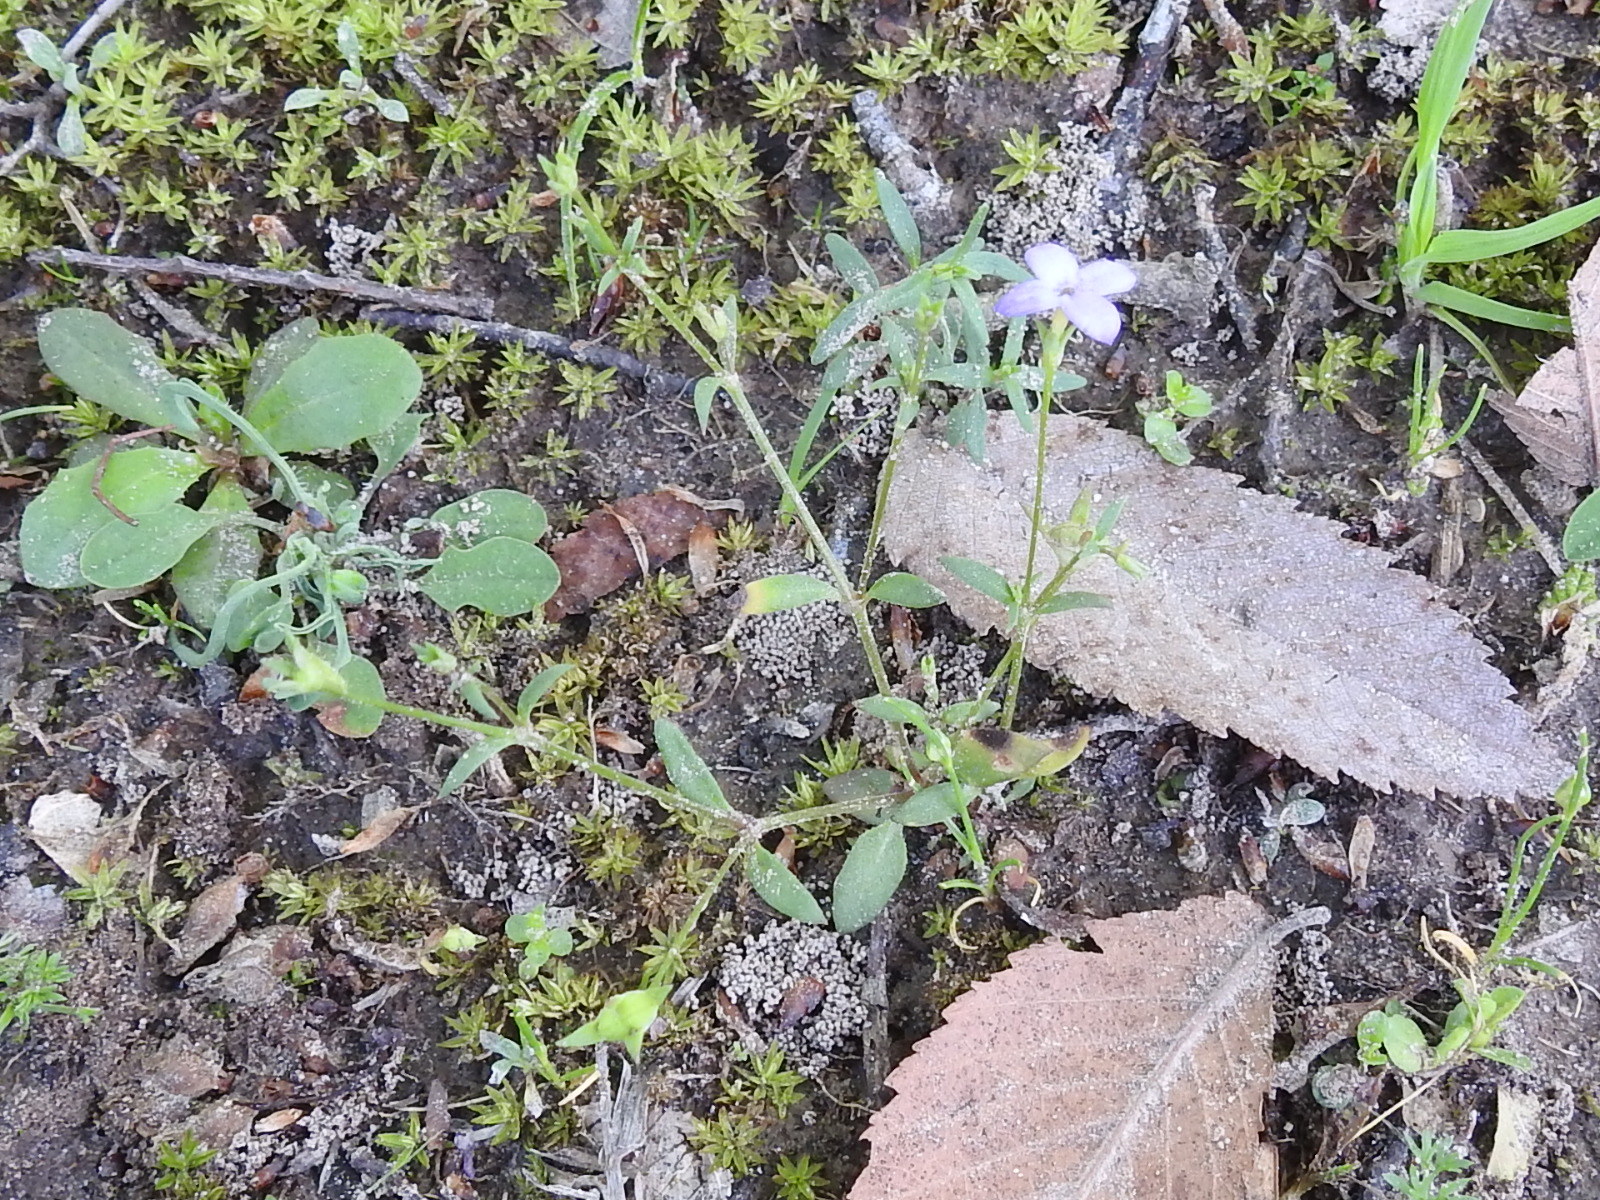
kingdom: Plantae
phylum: Tracheophyta
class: Magnoliopsida
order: Gentianales
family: Rubiaceae
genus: Houstonia
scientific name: Houstonia pusilla
